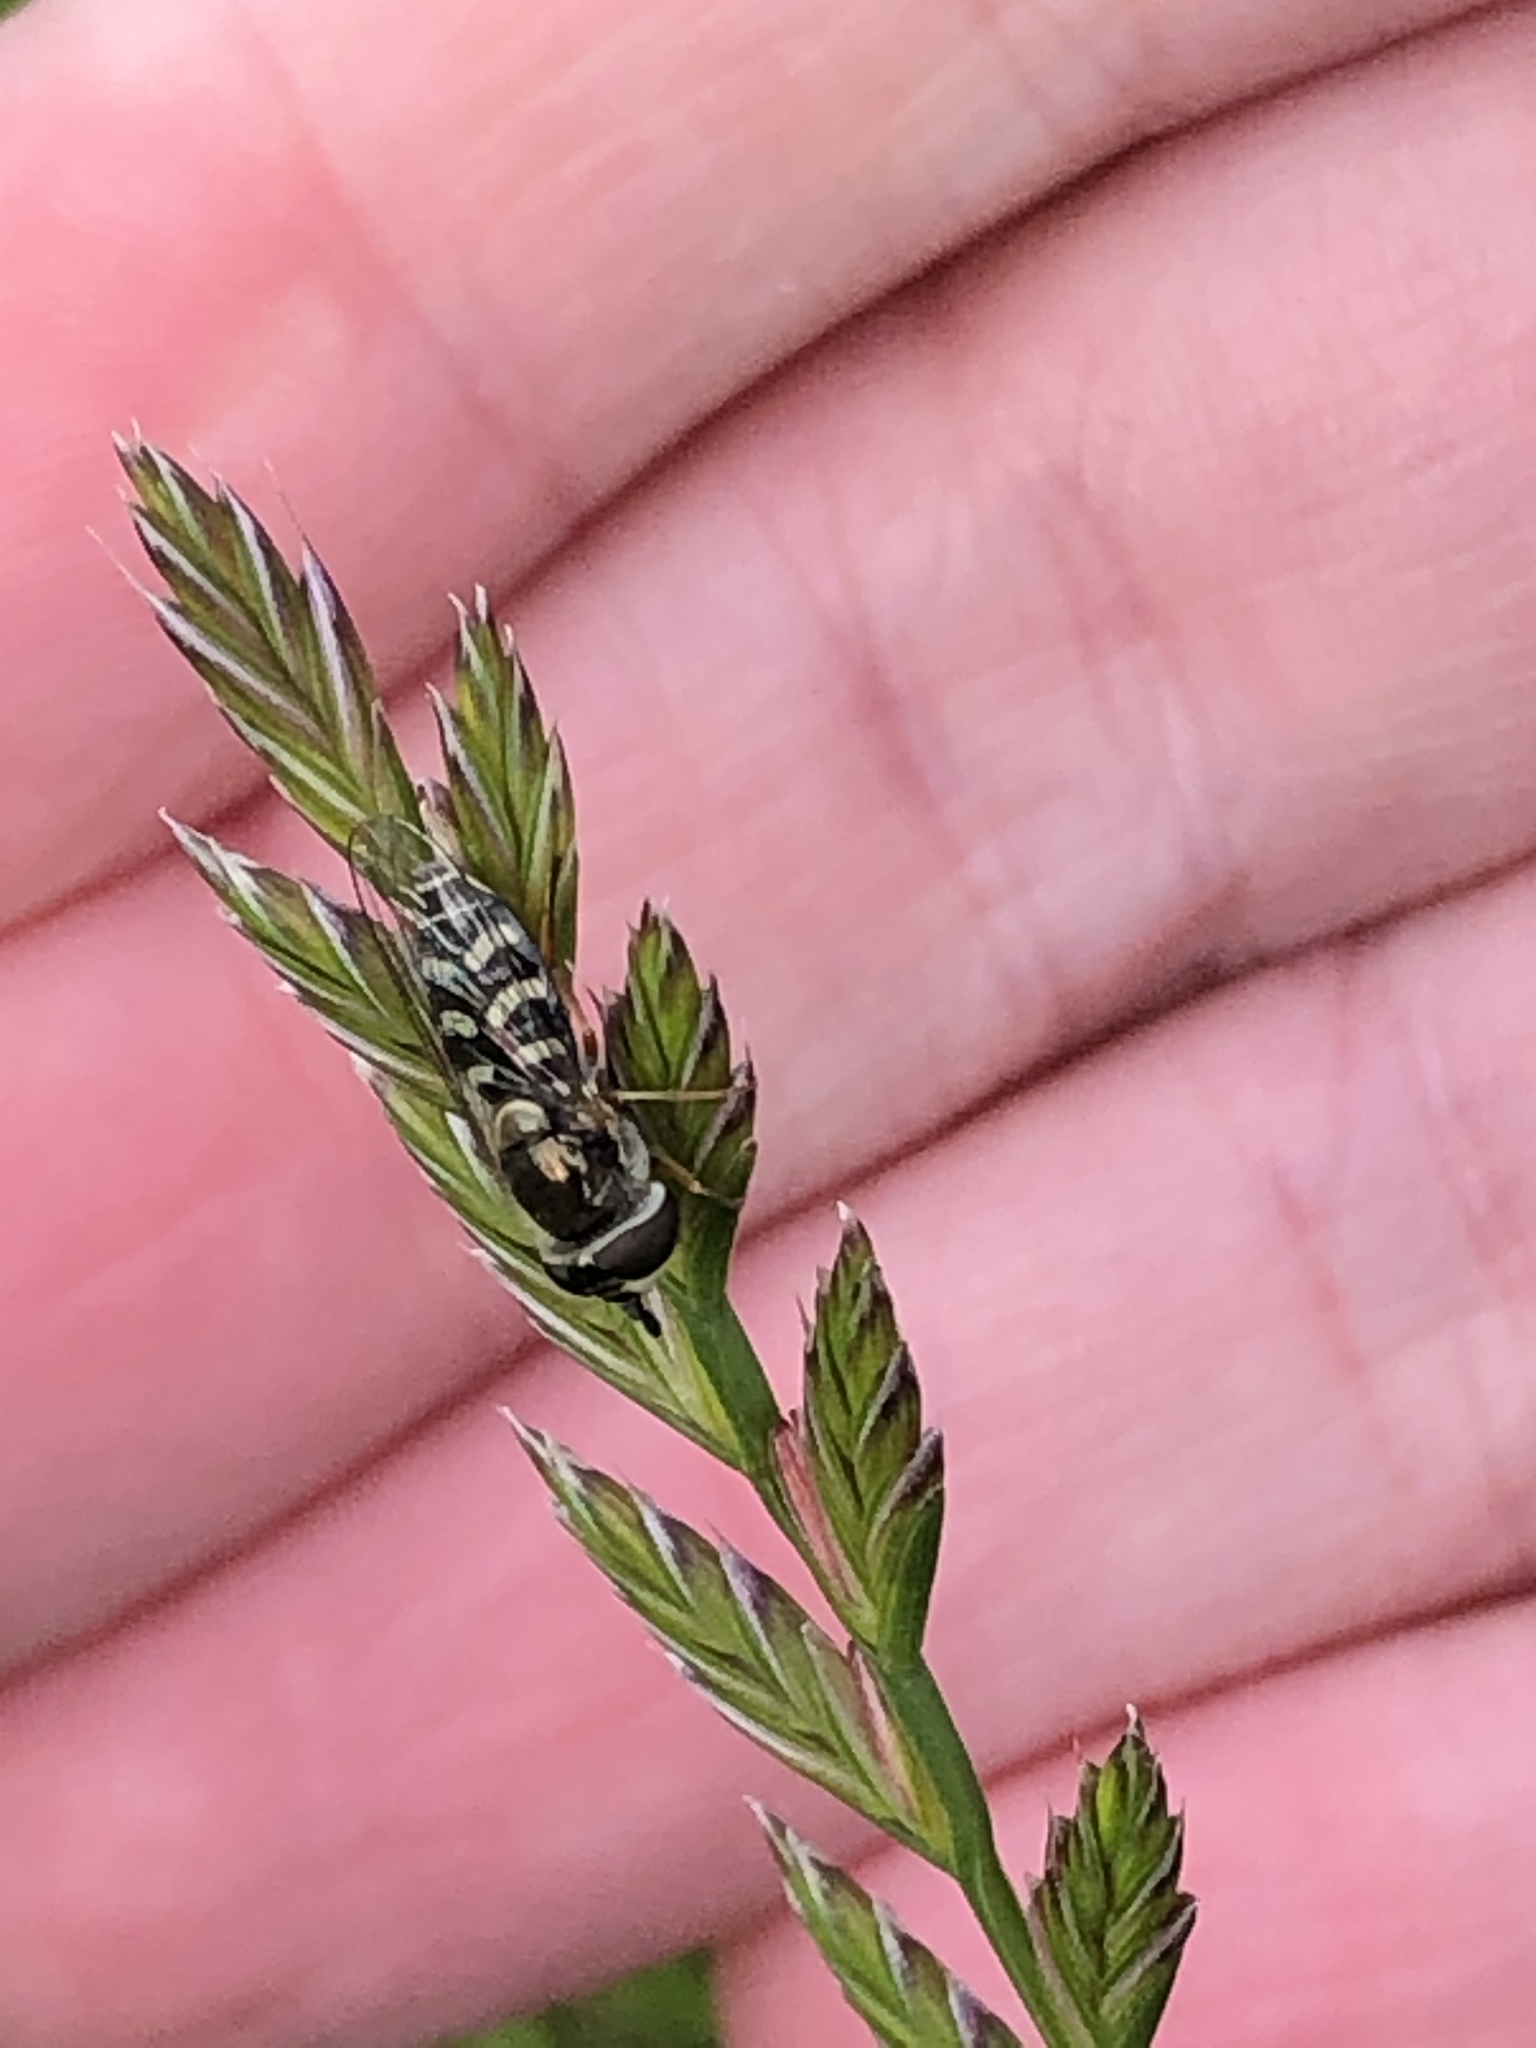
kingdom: Animalia
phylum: Arthropoda
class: Insecta
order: Diptera
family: Syrphidae
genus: Eupeodes
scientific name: Eupeodes volucris
